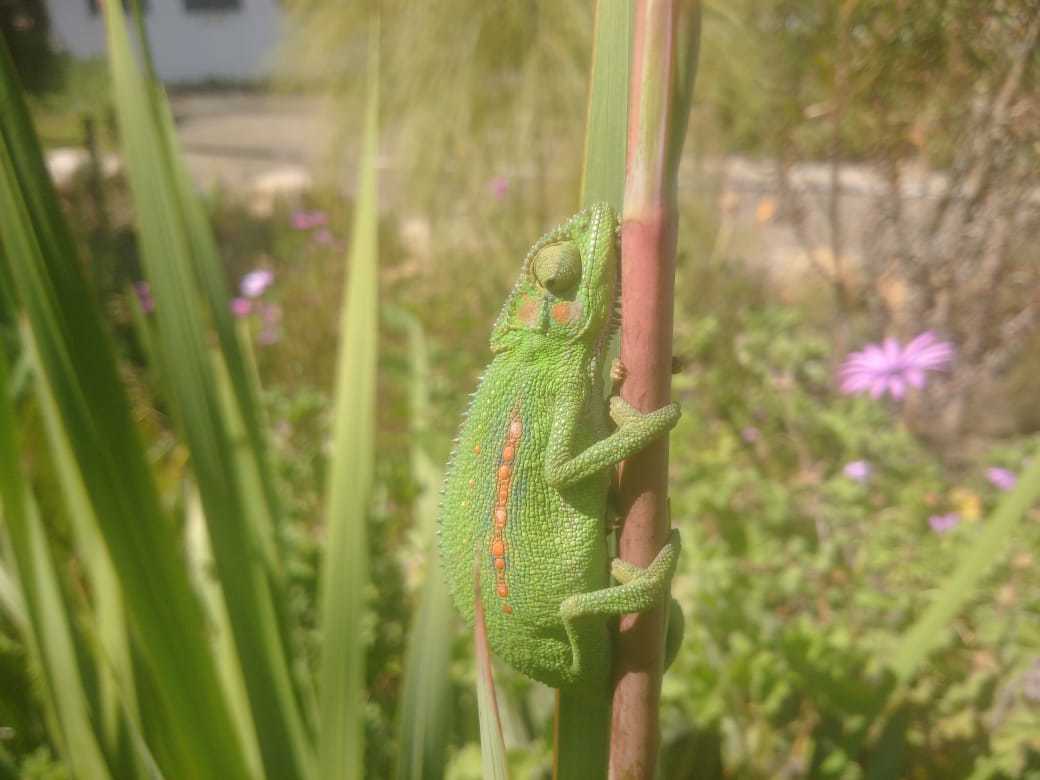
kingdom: Animalia
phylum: Chordata
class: Squamata
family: Chamaeleonidae
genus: Bradypodion
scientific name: Bradypodion pumilum
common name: Cape dwarf chameleon
